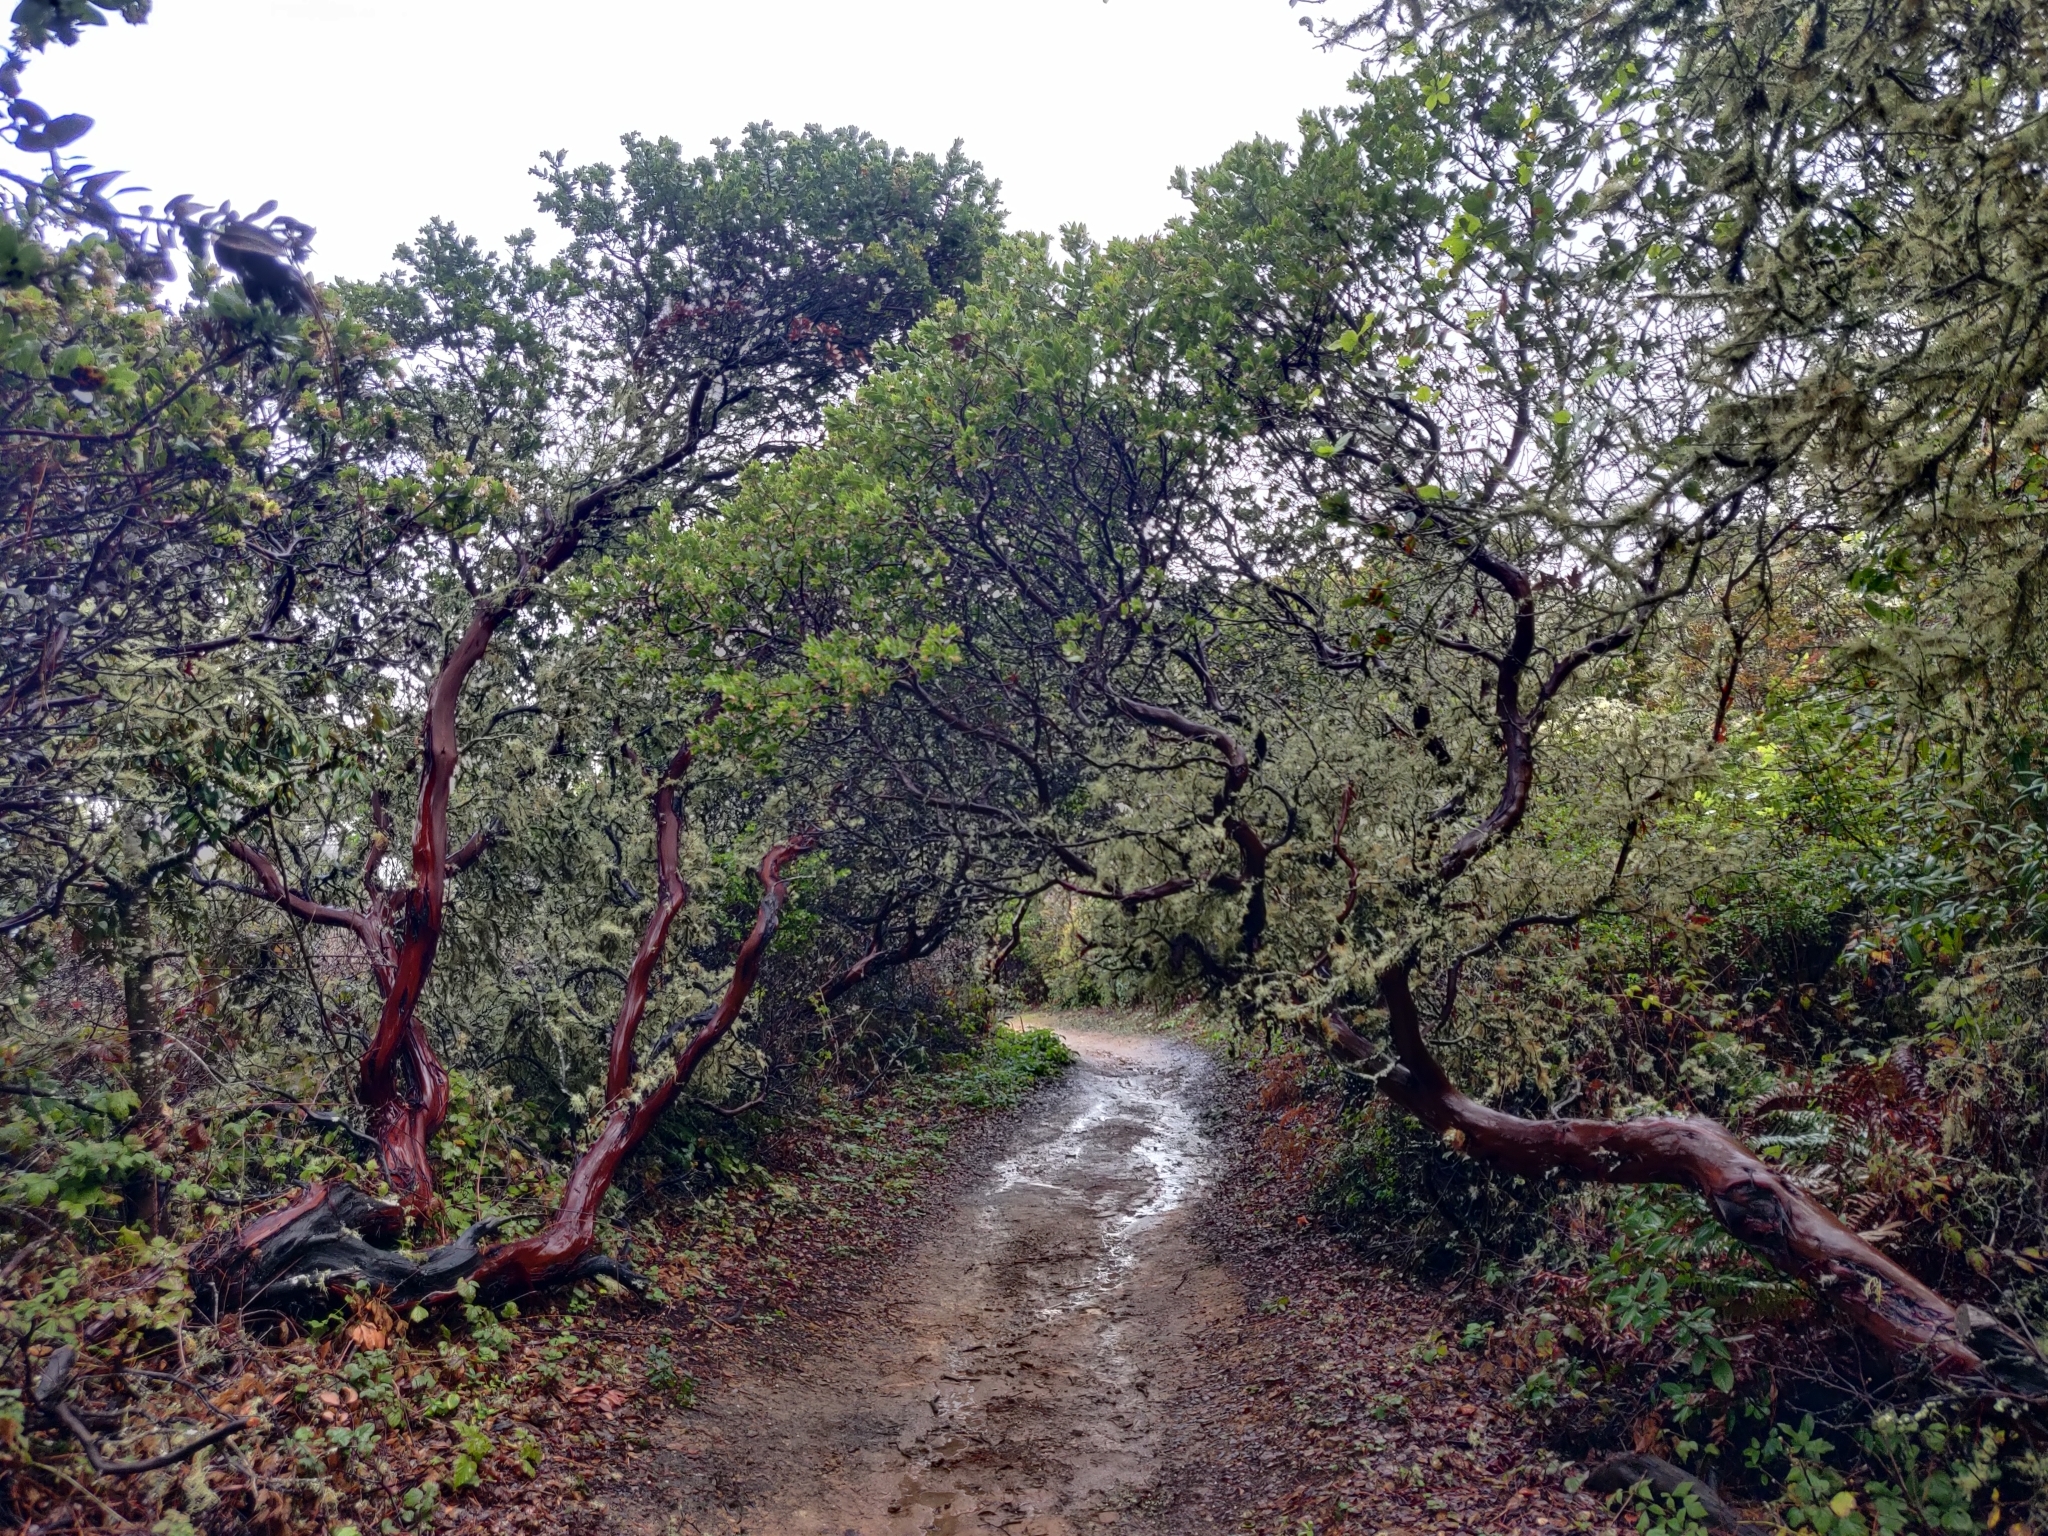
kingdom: Plantae
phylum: Tracheophyta
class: Magnoliopsida
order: Ericales
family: Ericaceae
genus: Arctostaphylos
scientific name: Arctostaphylos montaraensis
